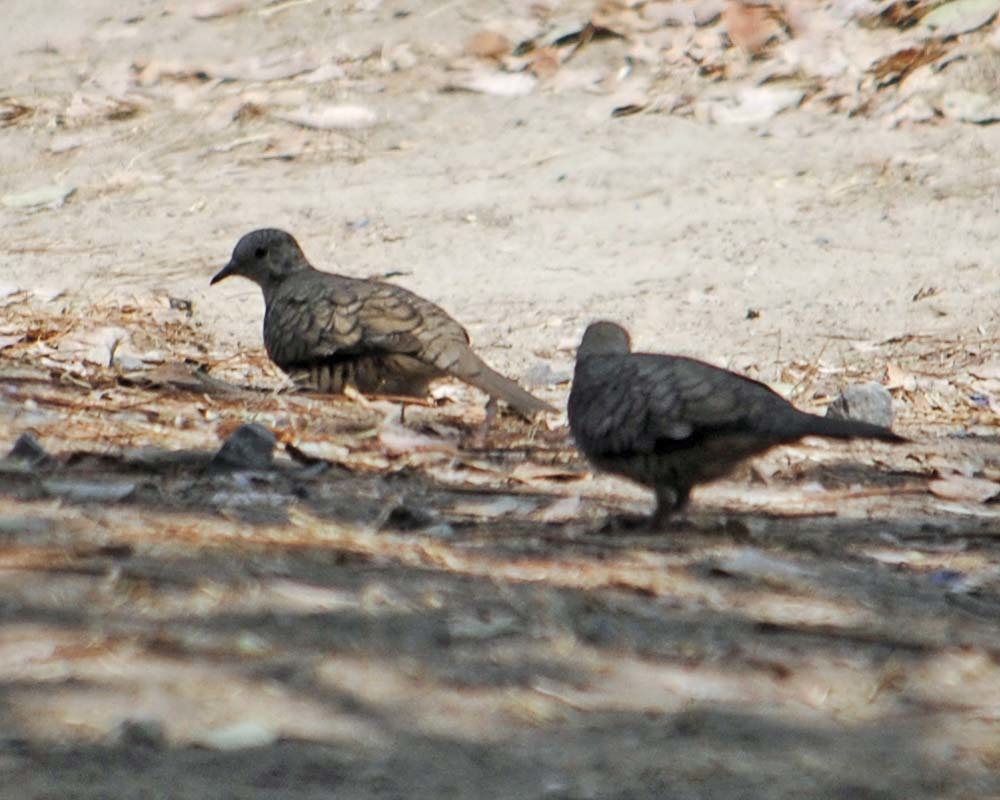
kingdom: Animalia
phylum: Chordata
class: Aves
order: Columbiformes
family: Columbidae
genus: Columbina
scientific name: Columbina inca
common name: Inca dove
